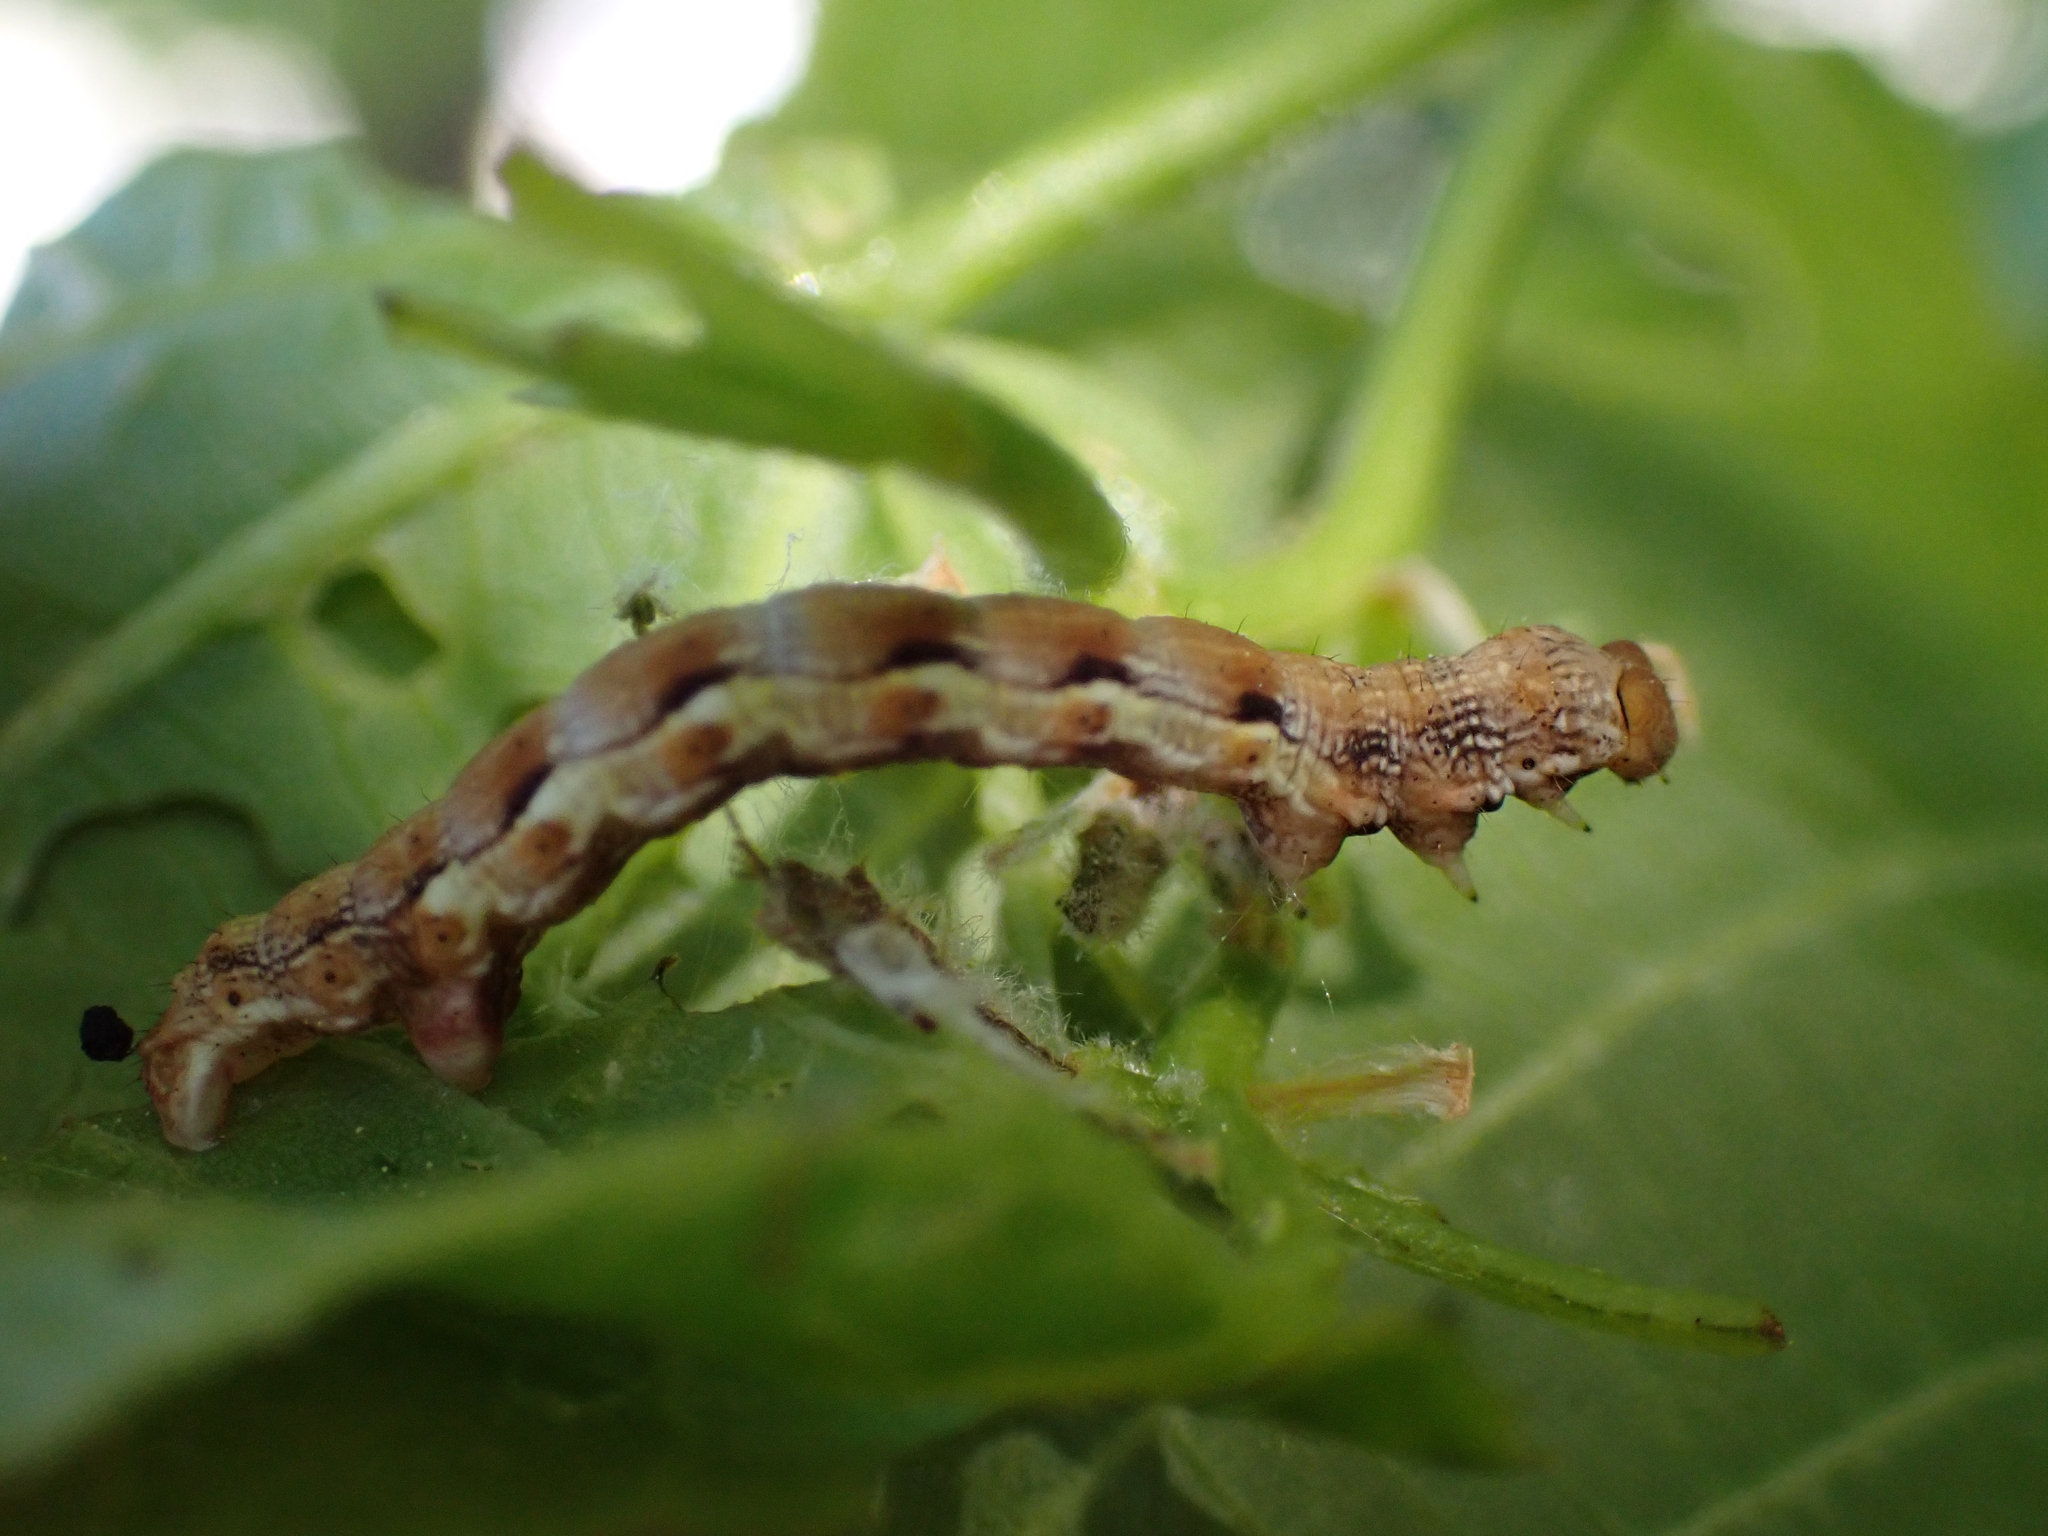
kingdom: Animalia
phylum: Arthropoda
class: Insecta
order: Lepidoptera
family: Geometridae
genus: Erannis
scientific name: Erannis defoliaria
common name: Mottled umber
